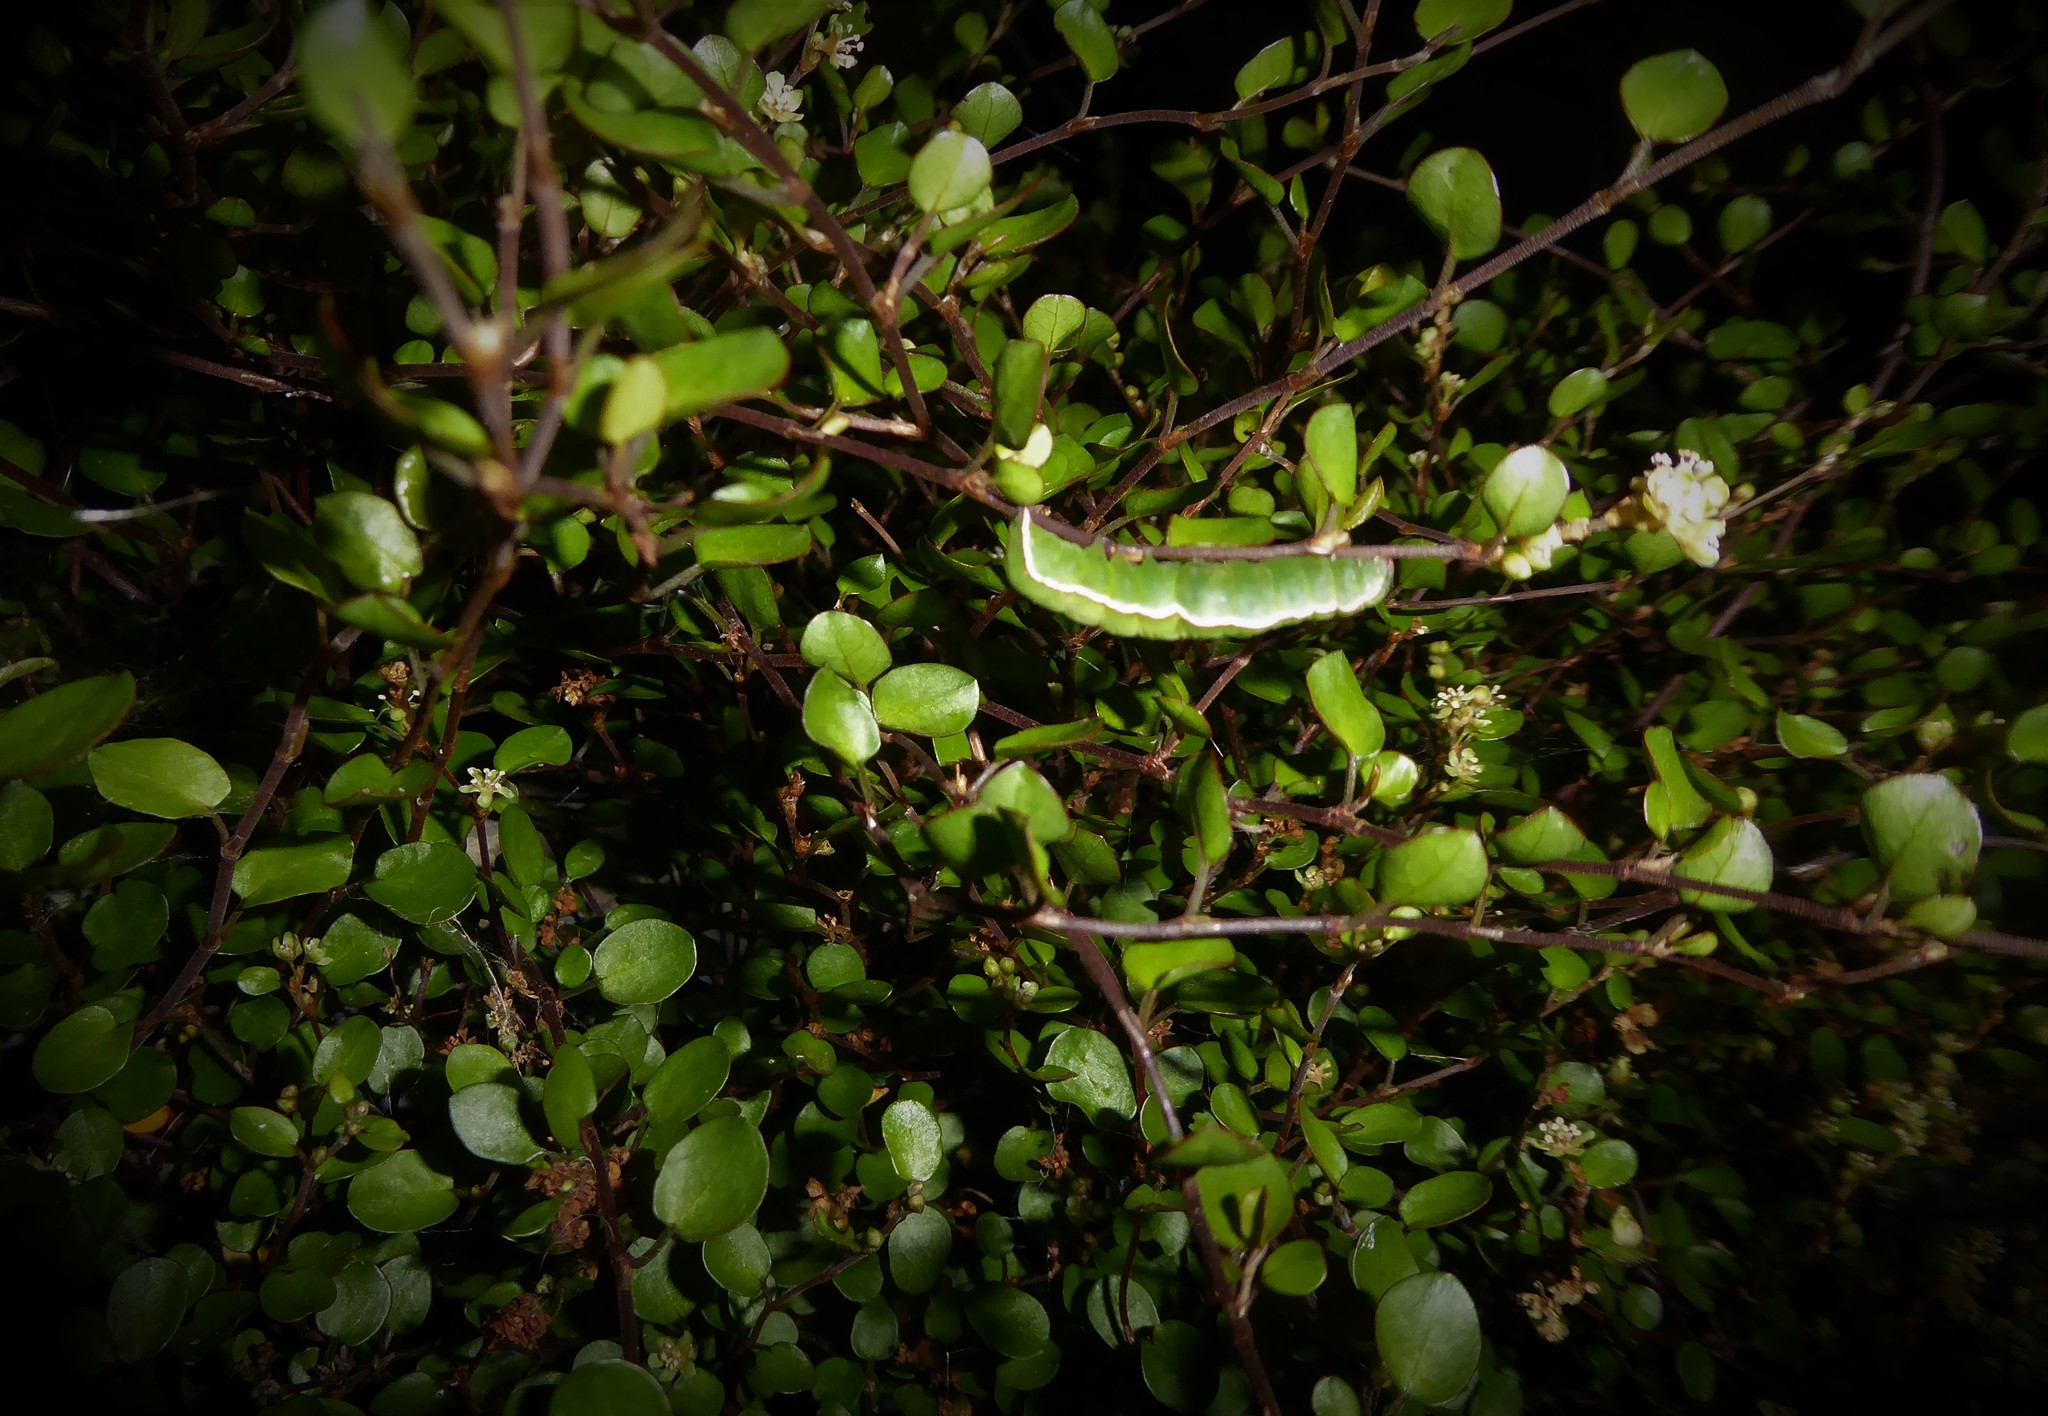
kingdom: Animalia
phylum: Arthropoda
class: Insecta
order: Lepidoptera
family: Noctuidae
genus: Meterana
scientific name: Meterana coeleno
